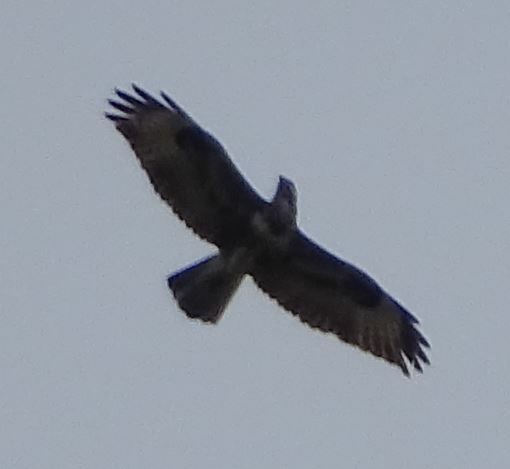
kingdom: Animalia
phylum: Chordata
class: Aves
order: Accipitriformes
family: Accipitridae
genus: Buteo
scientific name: Buteo buteo
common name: Common buzzard
